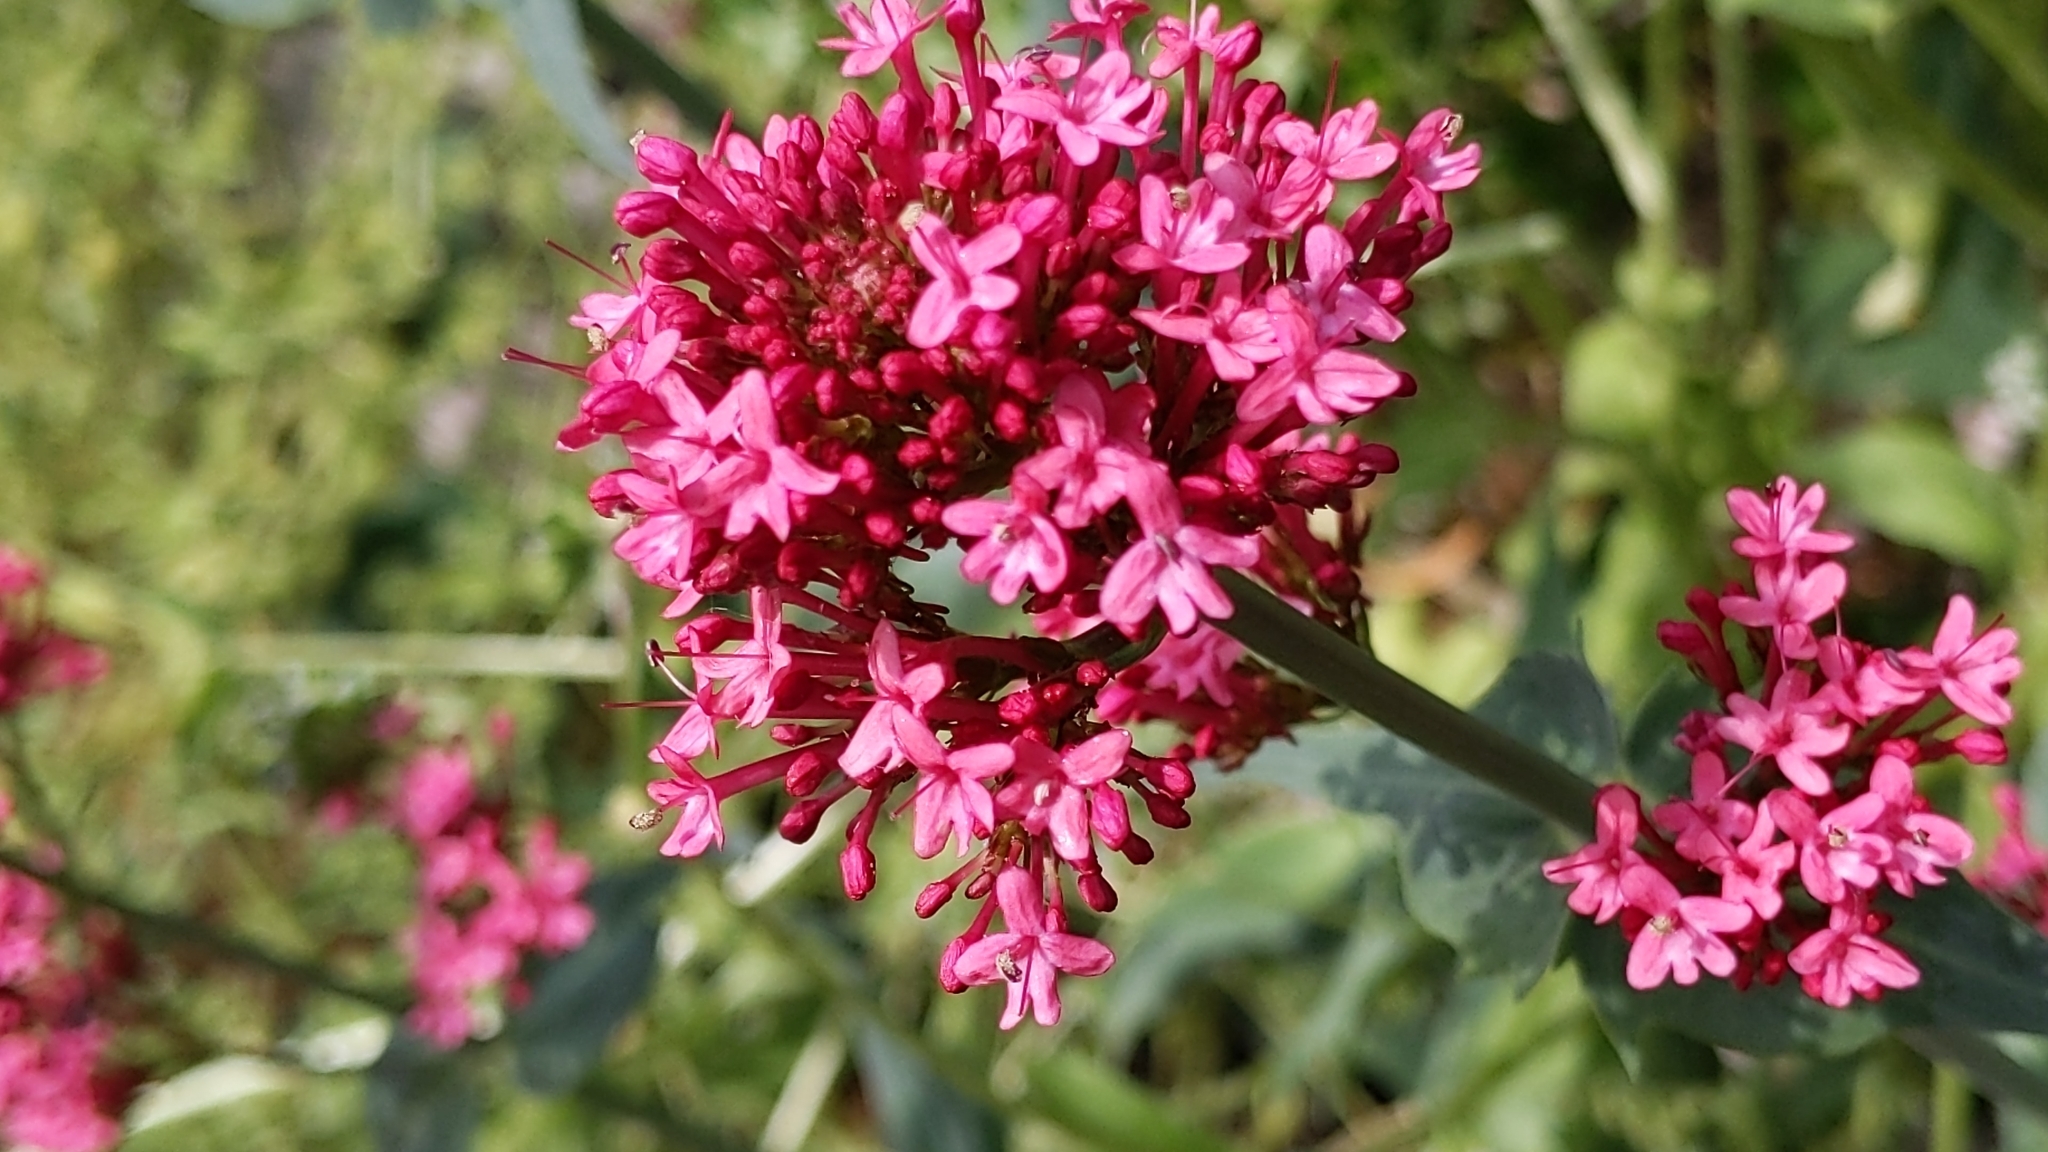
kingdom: Plantae
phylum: Tracheophyta
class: Magnoliopsida
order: Dipsacales
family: Caprifoliaceae
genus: Centranthus
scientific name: Centranthus ruber
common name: Red valerian
